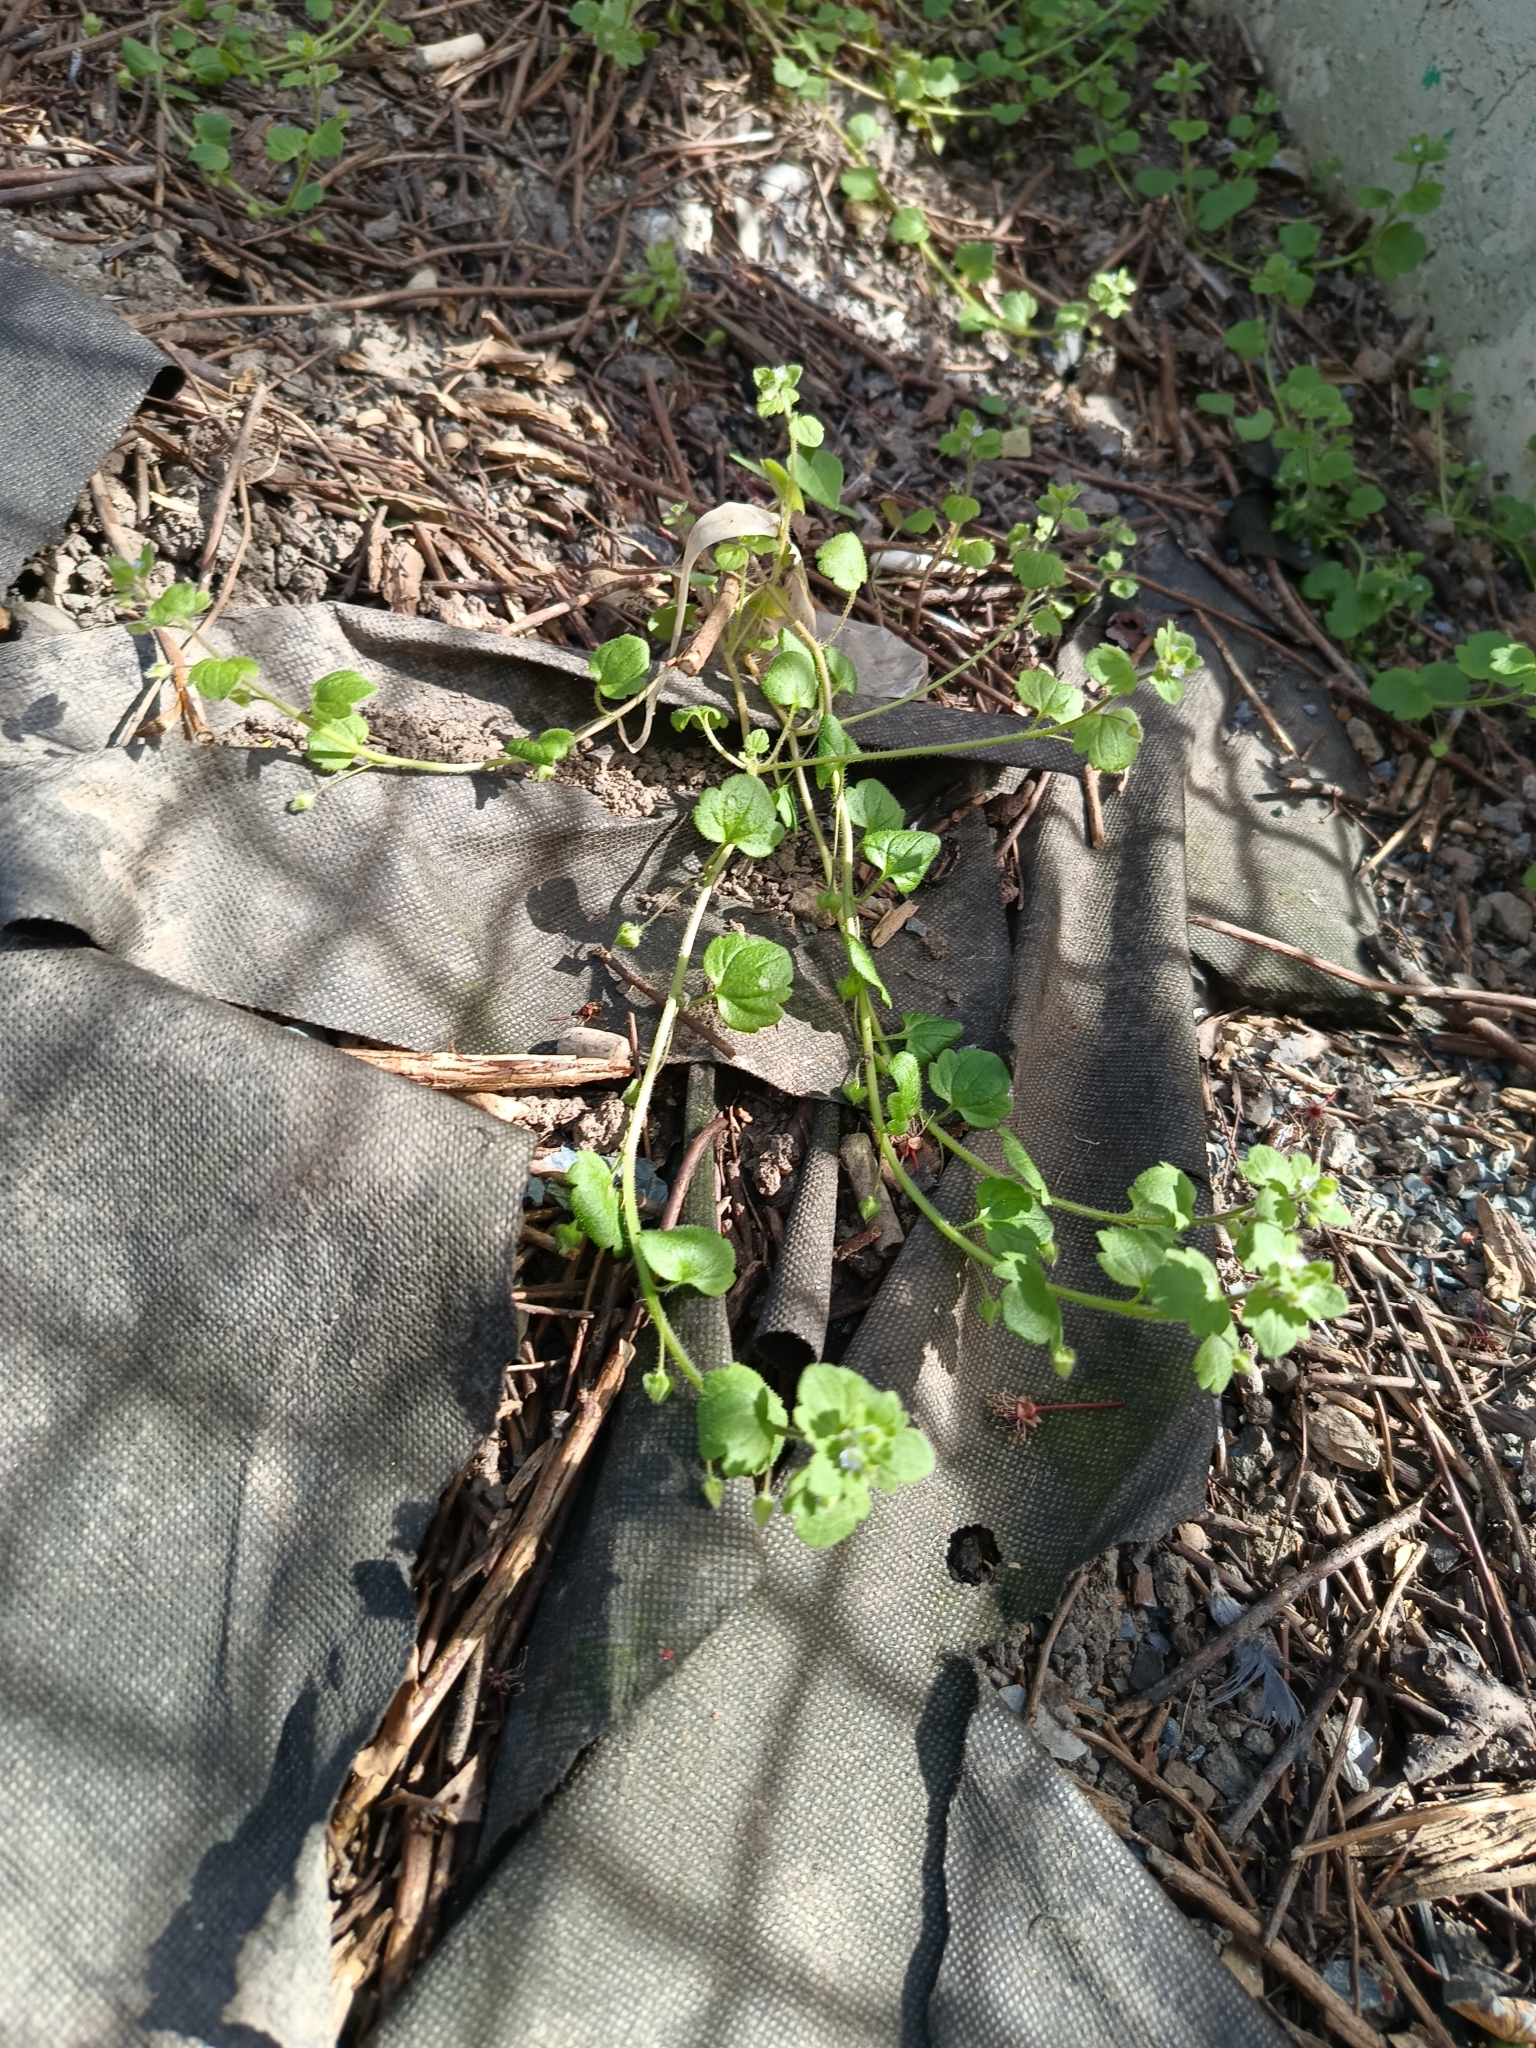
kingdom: Plantae
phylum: Tracheophyta
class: Magnoliopsida
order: Lamiales
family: Plantaginaceae
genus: Veronica
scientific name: Veronica sublobata
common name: False ivy-leaved speedwell
